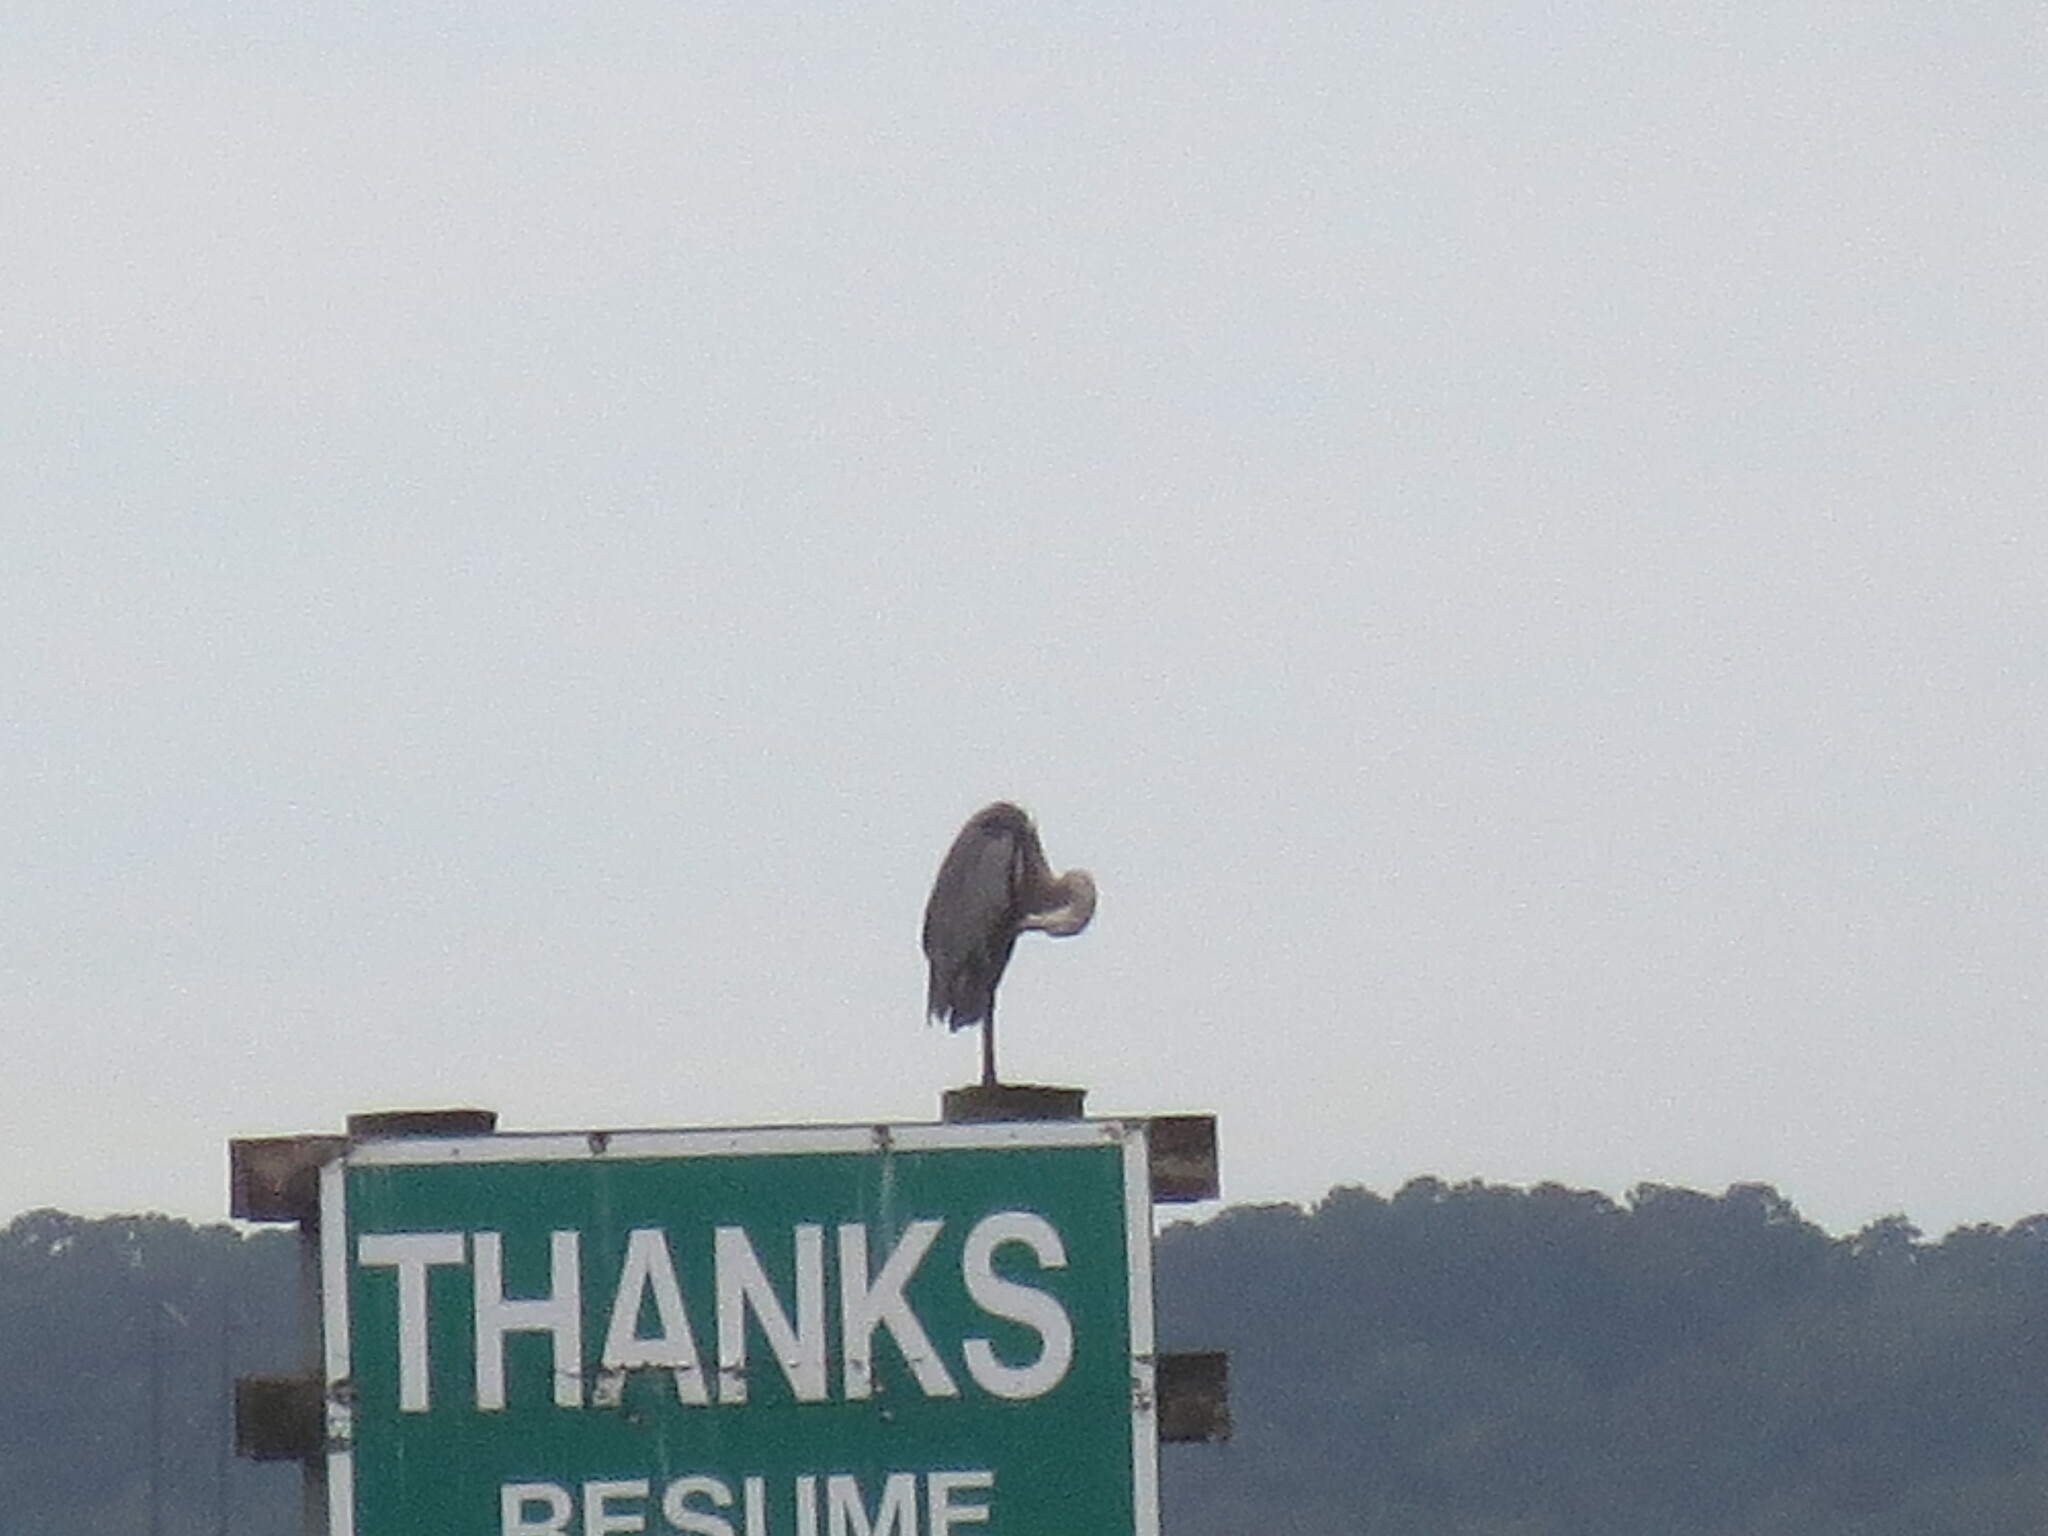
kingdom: Animalia
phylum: Chordata
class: Aves
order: Pelecaniformes
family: Ardeidae
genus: Ardea
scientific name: Ardea herodias
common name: Great blue heron
